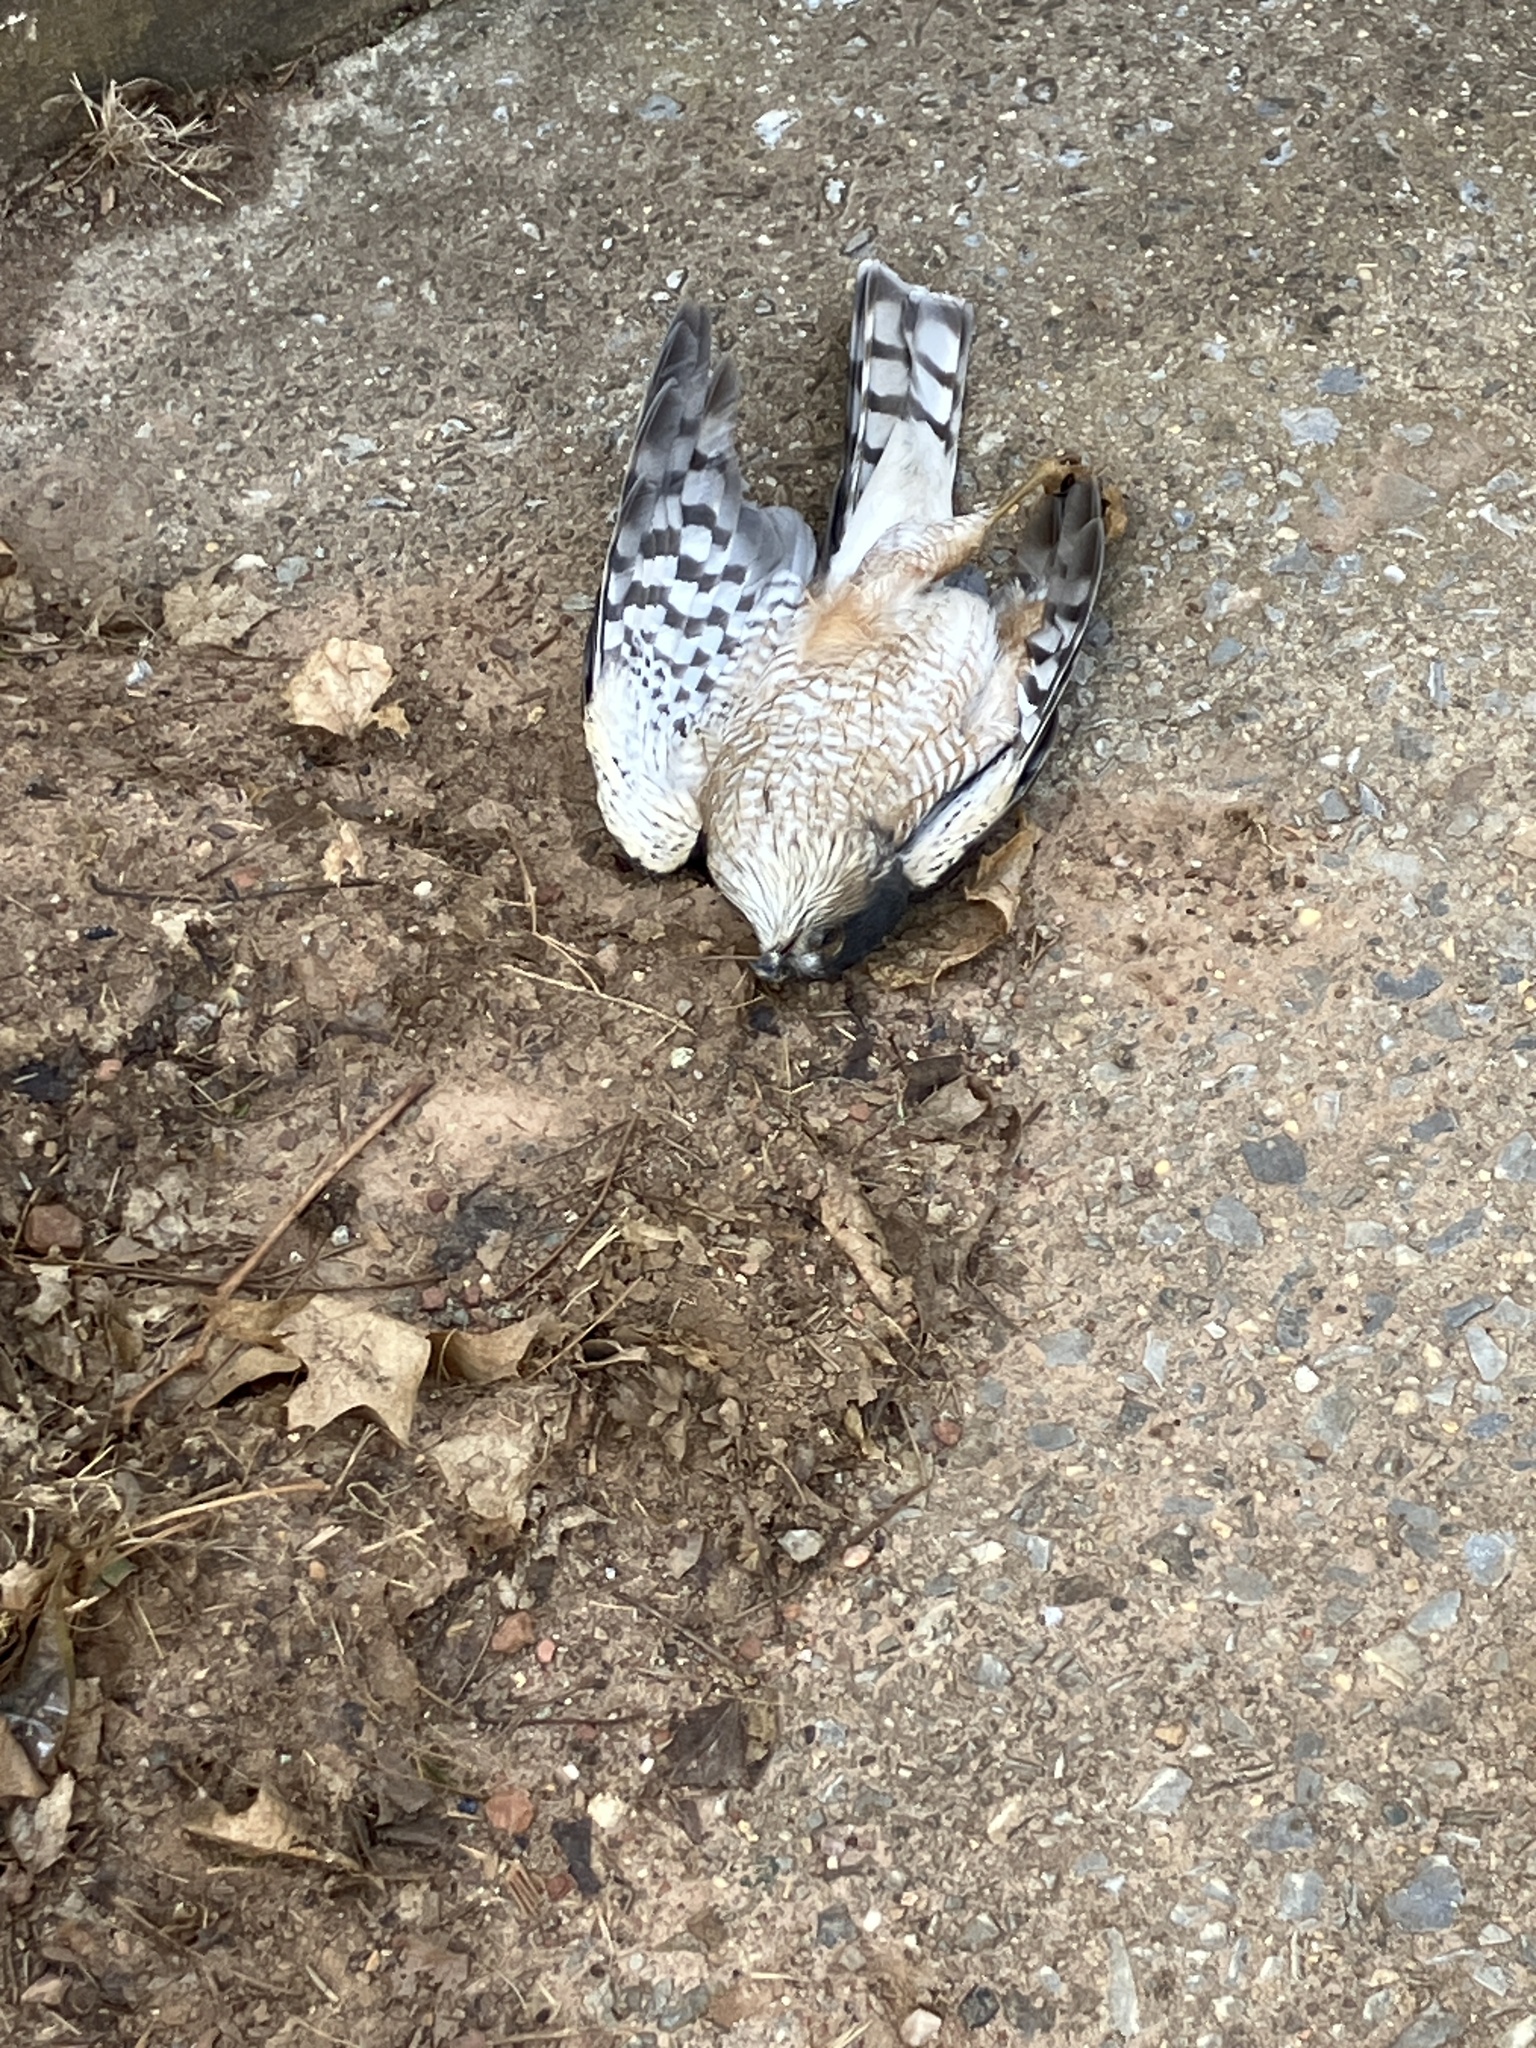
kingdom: Animalia
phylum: Chordata
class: Aves
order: Accipitriformes
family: Accipitridae
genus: Accipiter
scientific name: Accipiter striatus
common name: Sharp-shinned hawk
